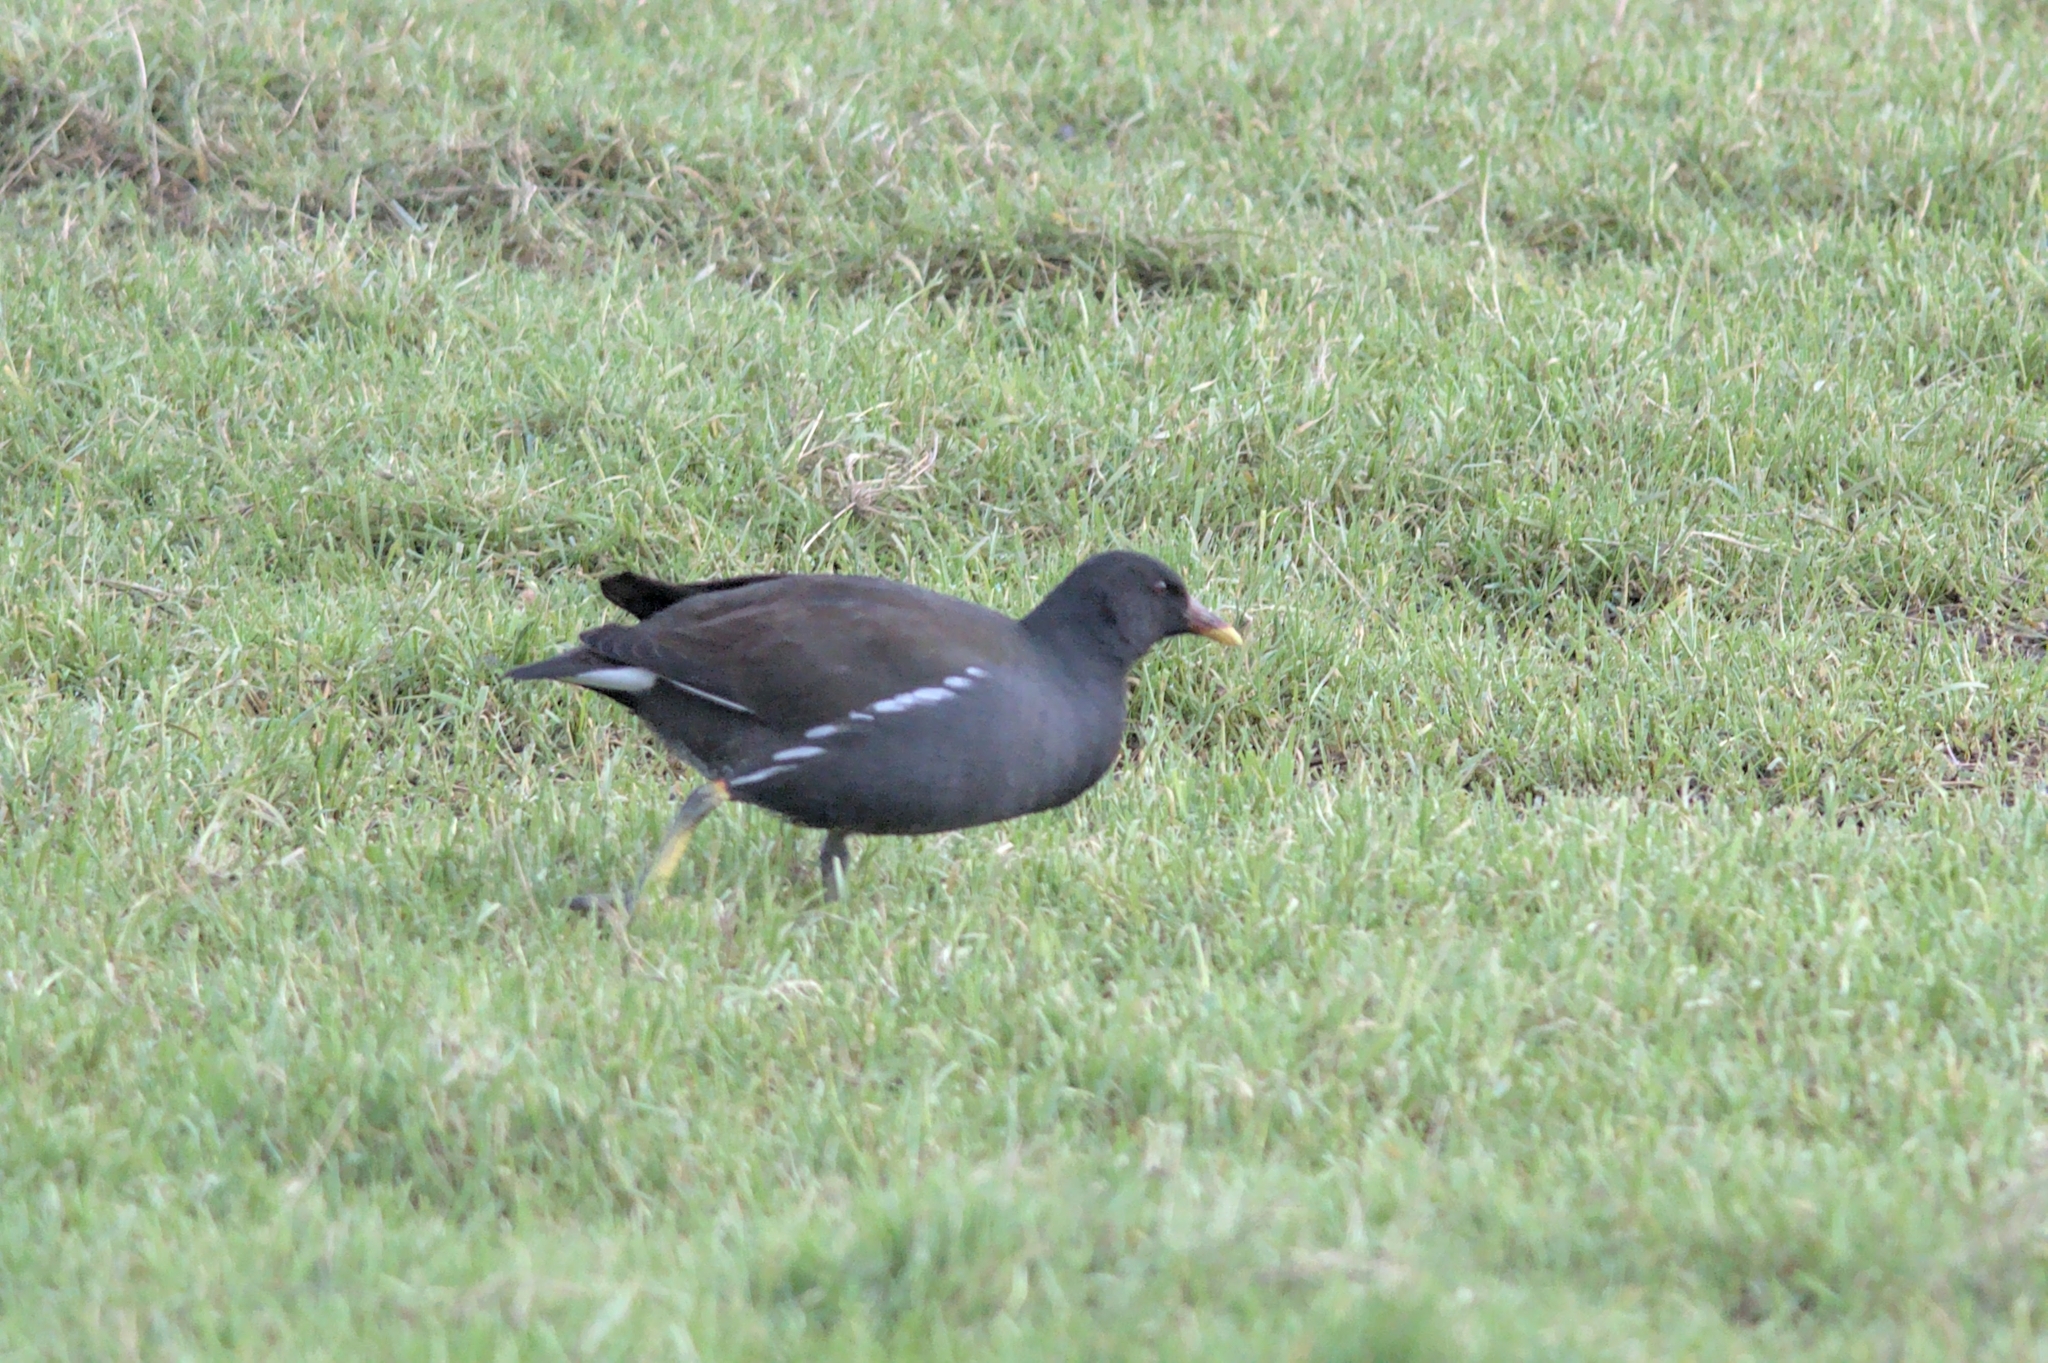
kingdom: Animalia
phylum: Chordata
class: Aves
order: Gruiformes
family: Rallidae
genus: Gallinula
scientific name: Gallinula chloropus
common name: Common moorhen
